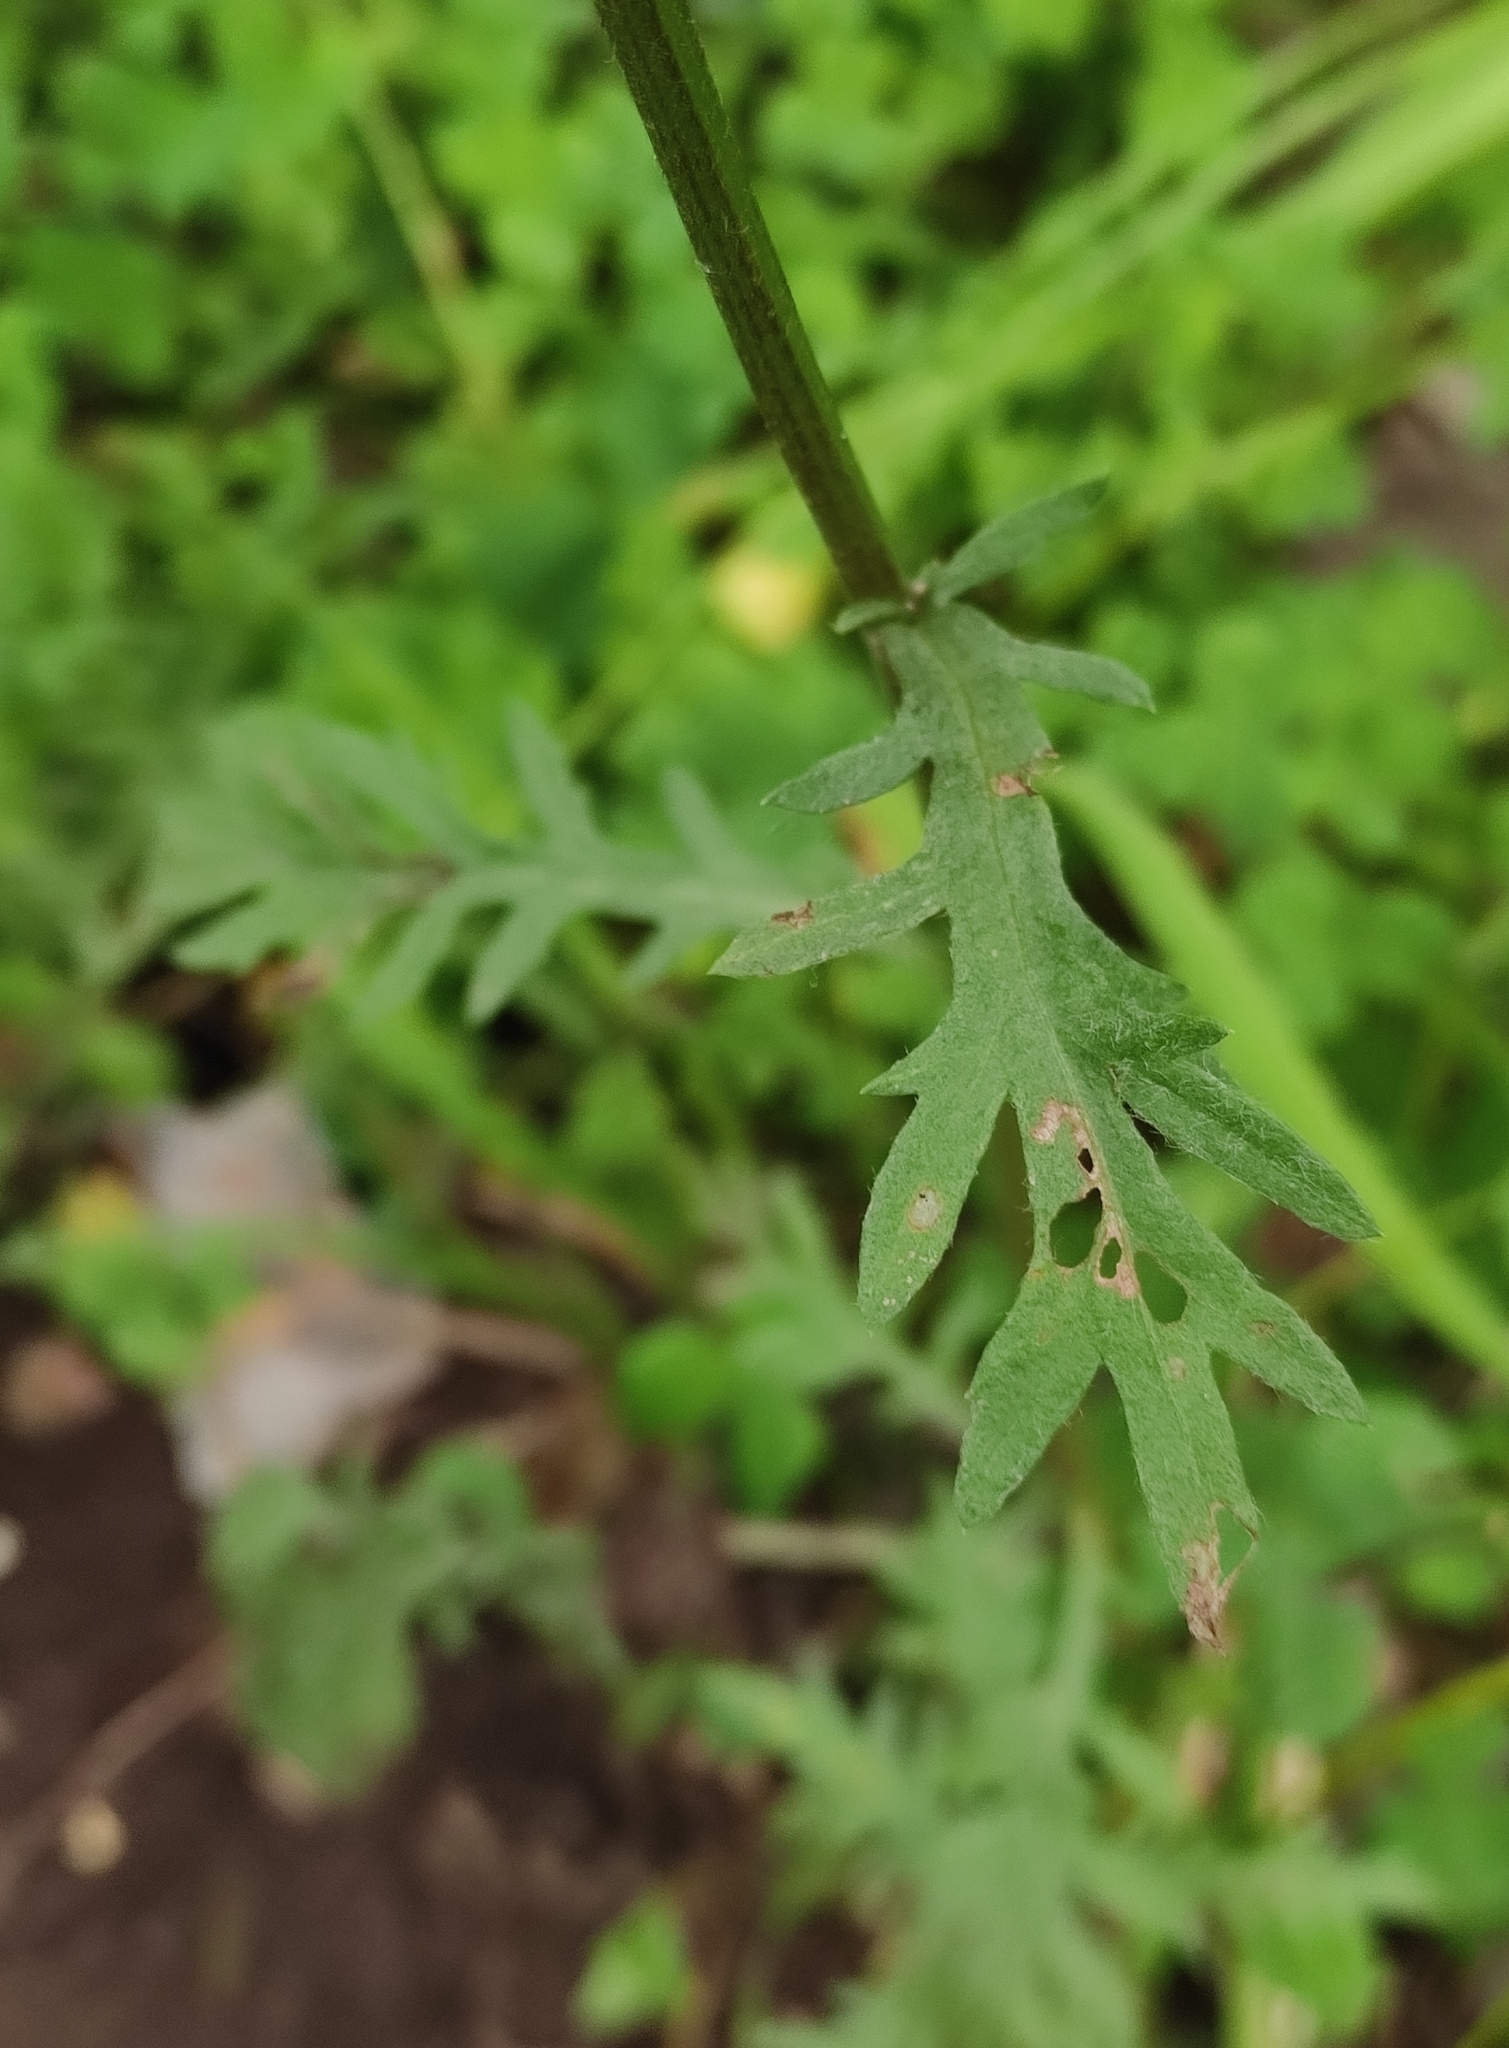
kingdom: Plantae
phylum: Tracheophyta
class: Magnoliopsida
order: Asterales
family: Asteraceae
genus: Artemisia
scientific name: Artemisia tanacetifolia
